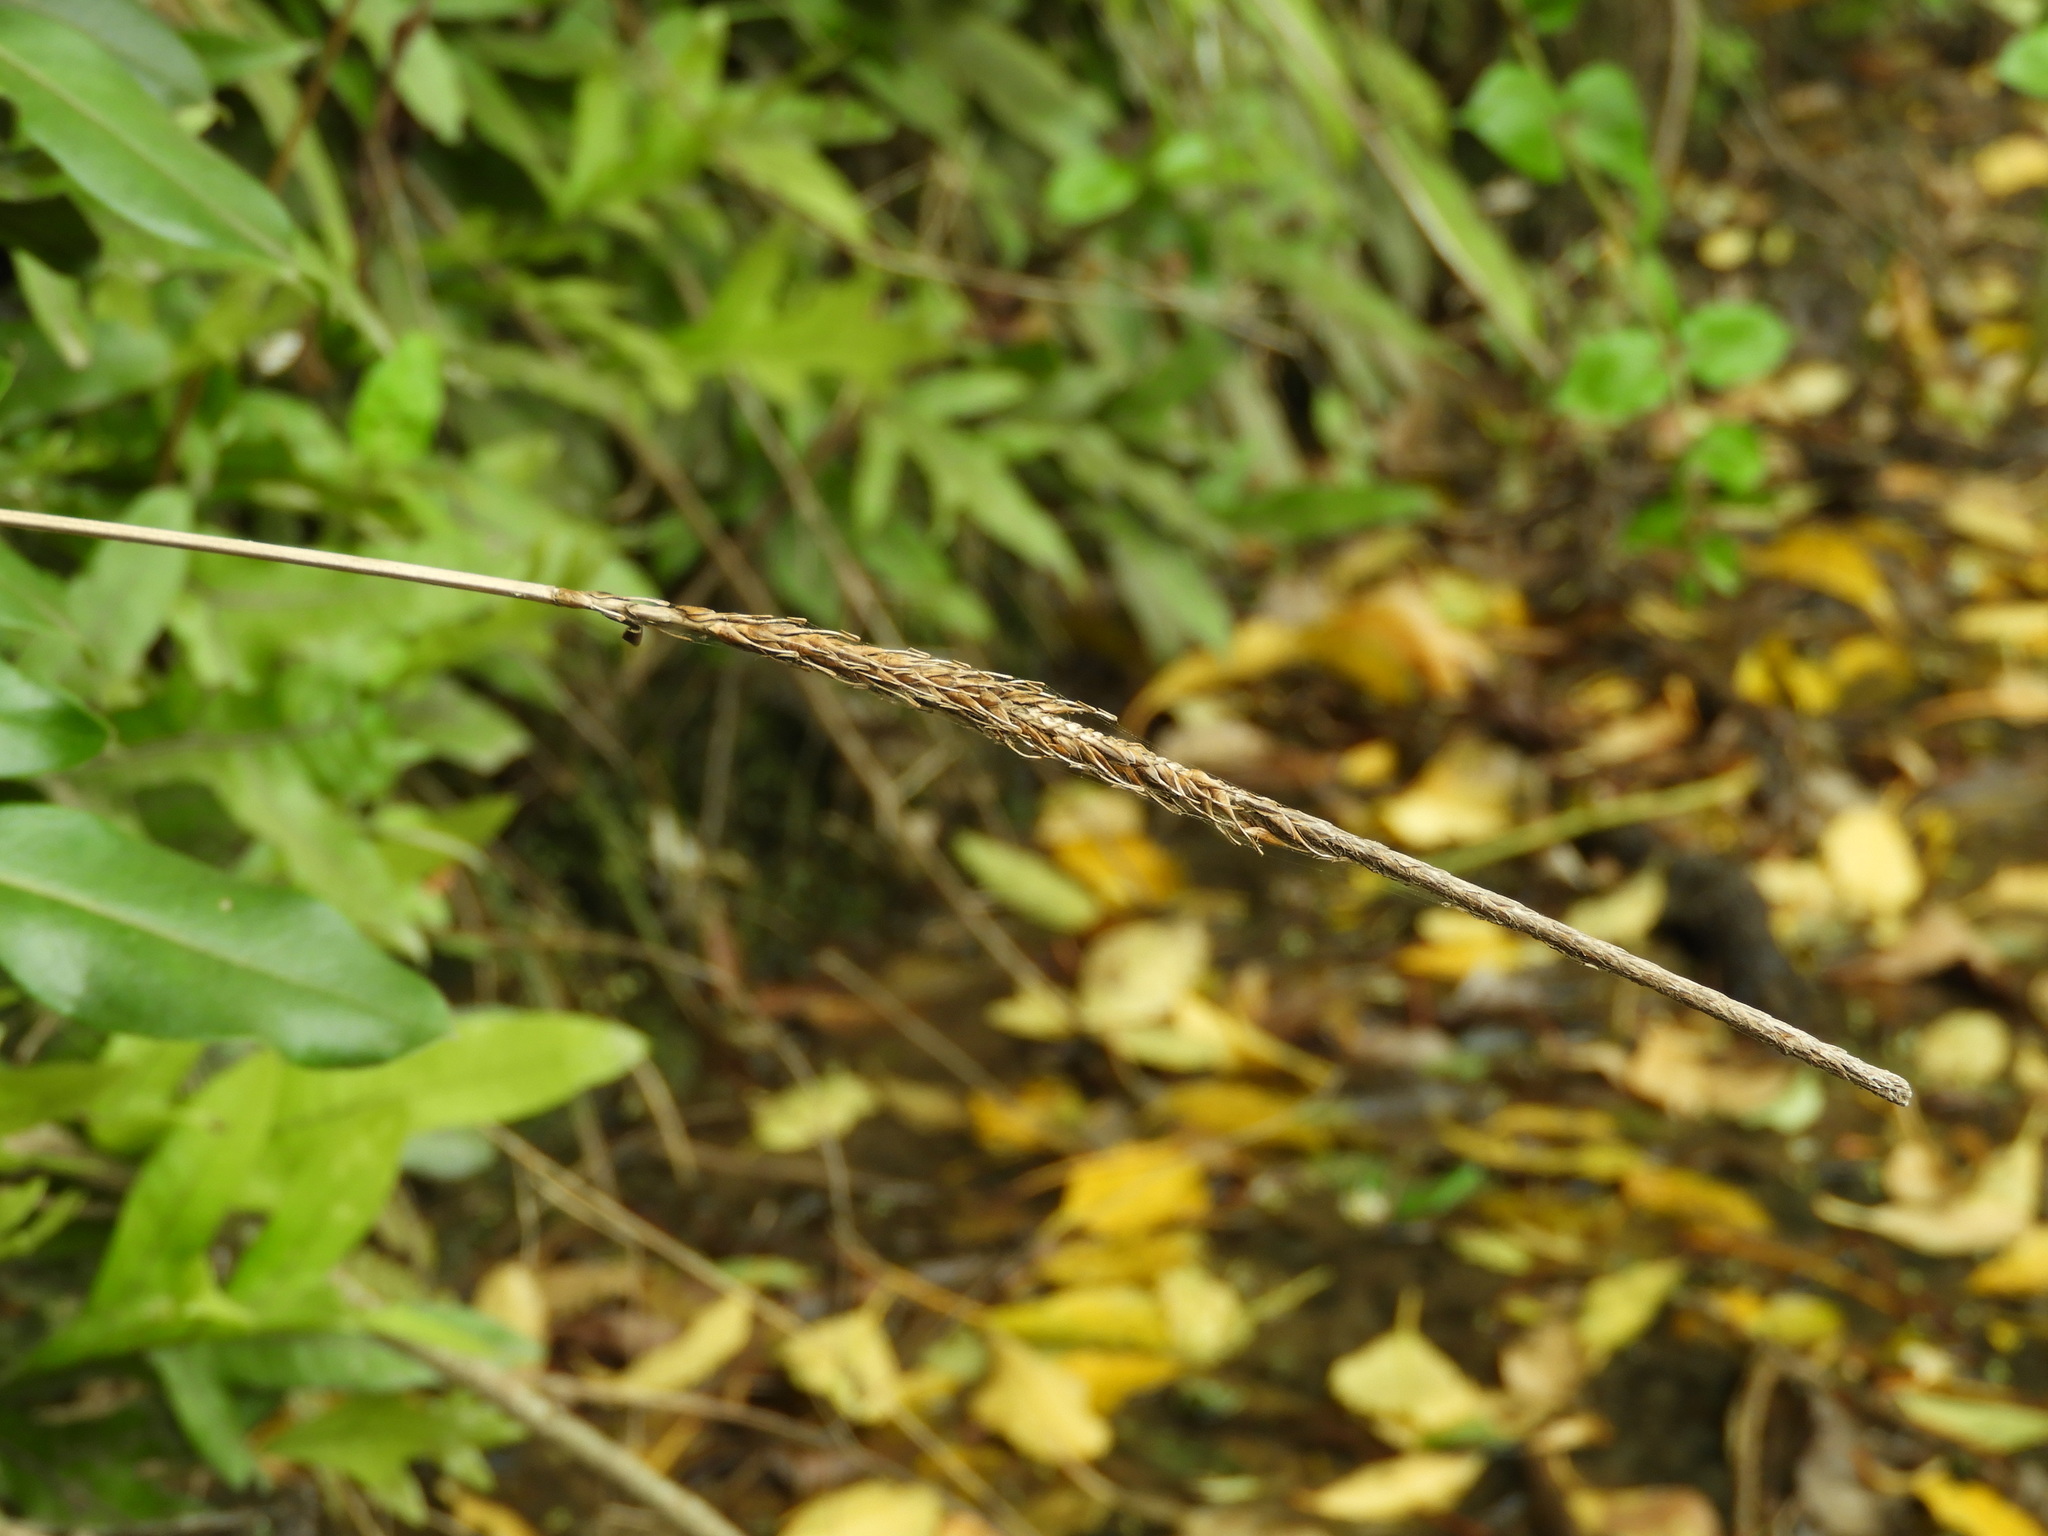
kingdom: Plantae
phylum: Tracheophyta
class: Liliopsida
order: Poales
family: Cyperaceae
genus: Carex
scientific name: Carex uncinata
